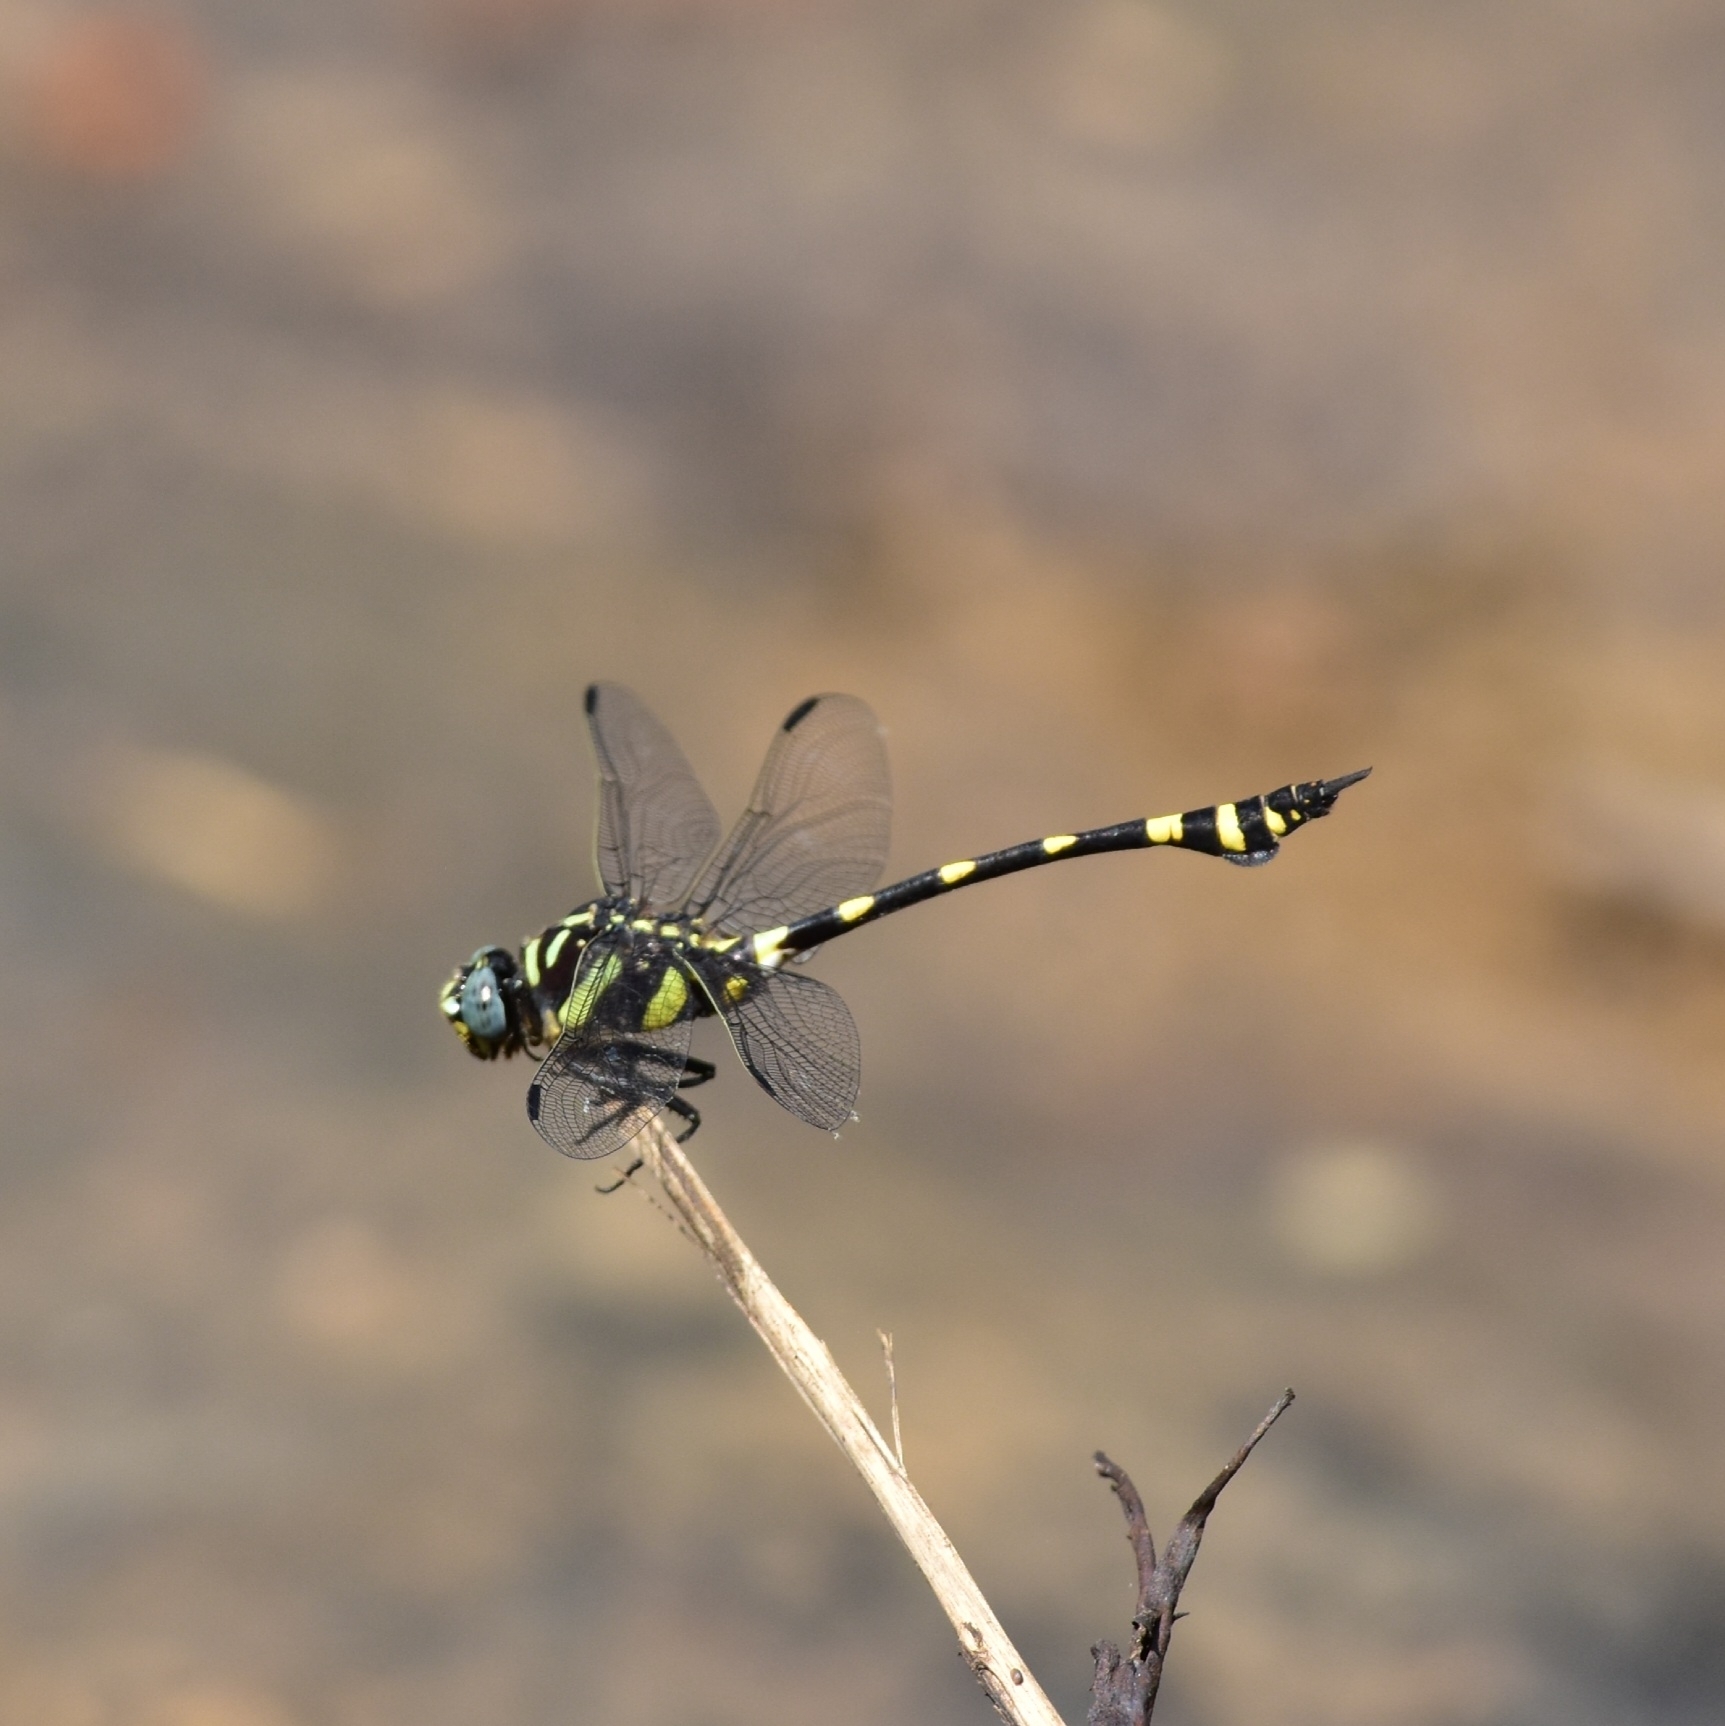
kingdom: Animalia
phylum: Arthropoda
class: Insecta
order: Odonata
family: Gomphidae
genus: Ictinogomphus
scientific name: Ictinogomphus rapax
